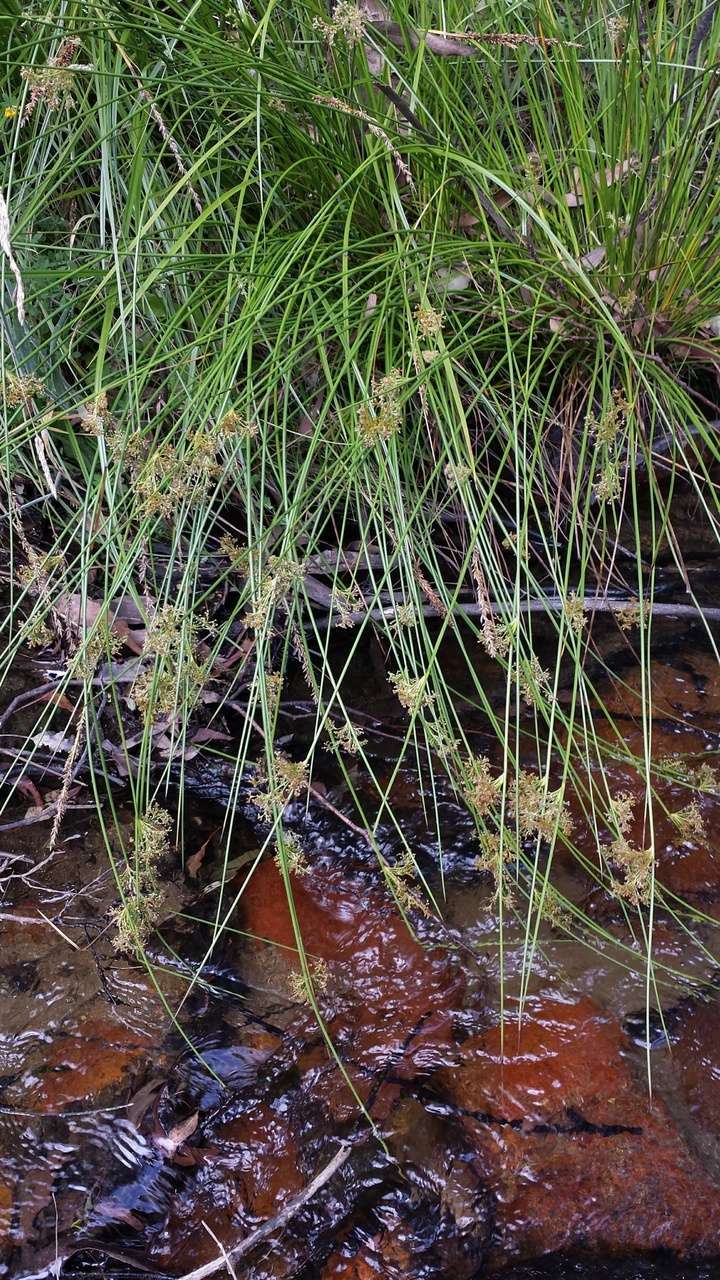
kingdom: Plantae
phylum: Tracheophyta
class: Liliopsida
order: Poales
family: Juncaceae
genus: Juncus
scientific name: Juncus effusus
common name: Soft rush
